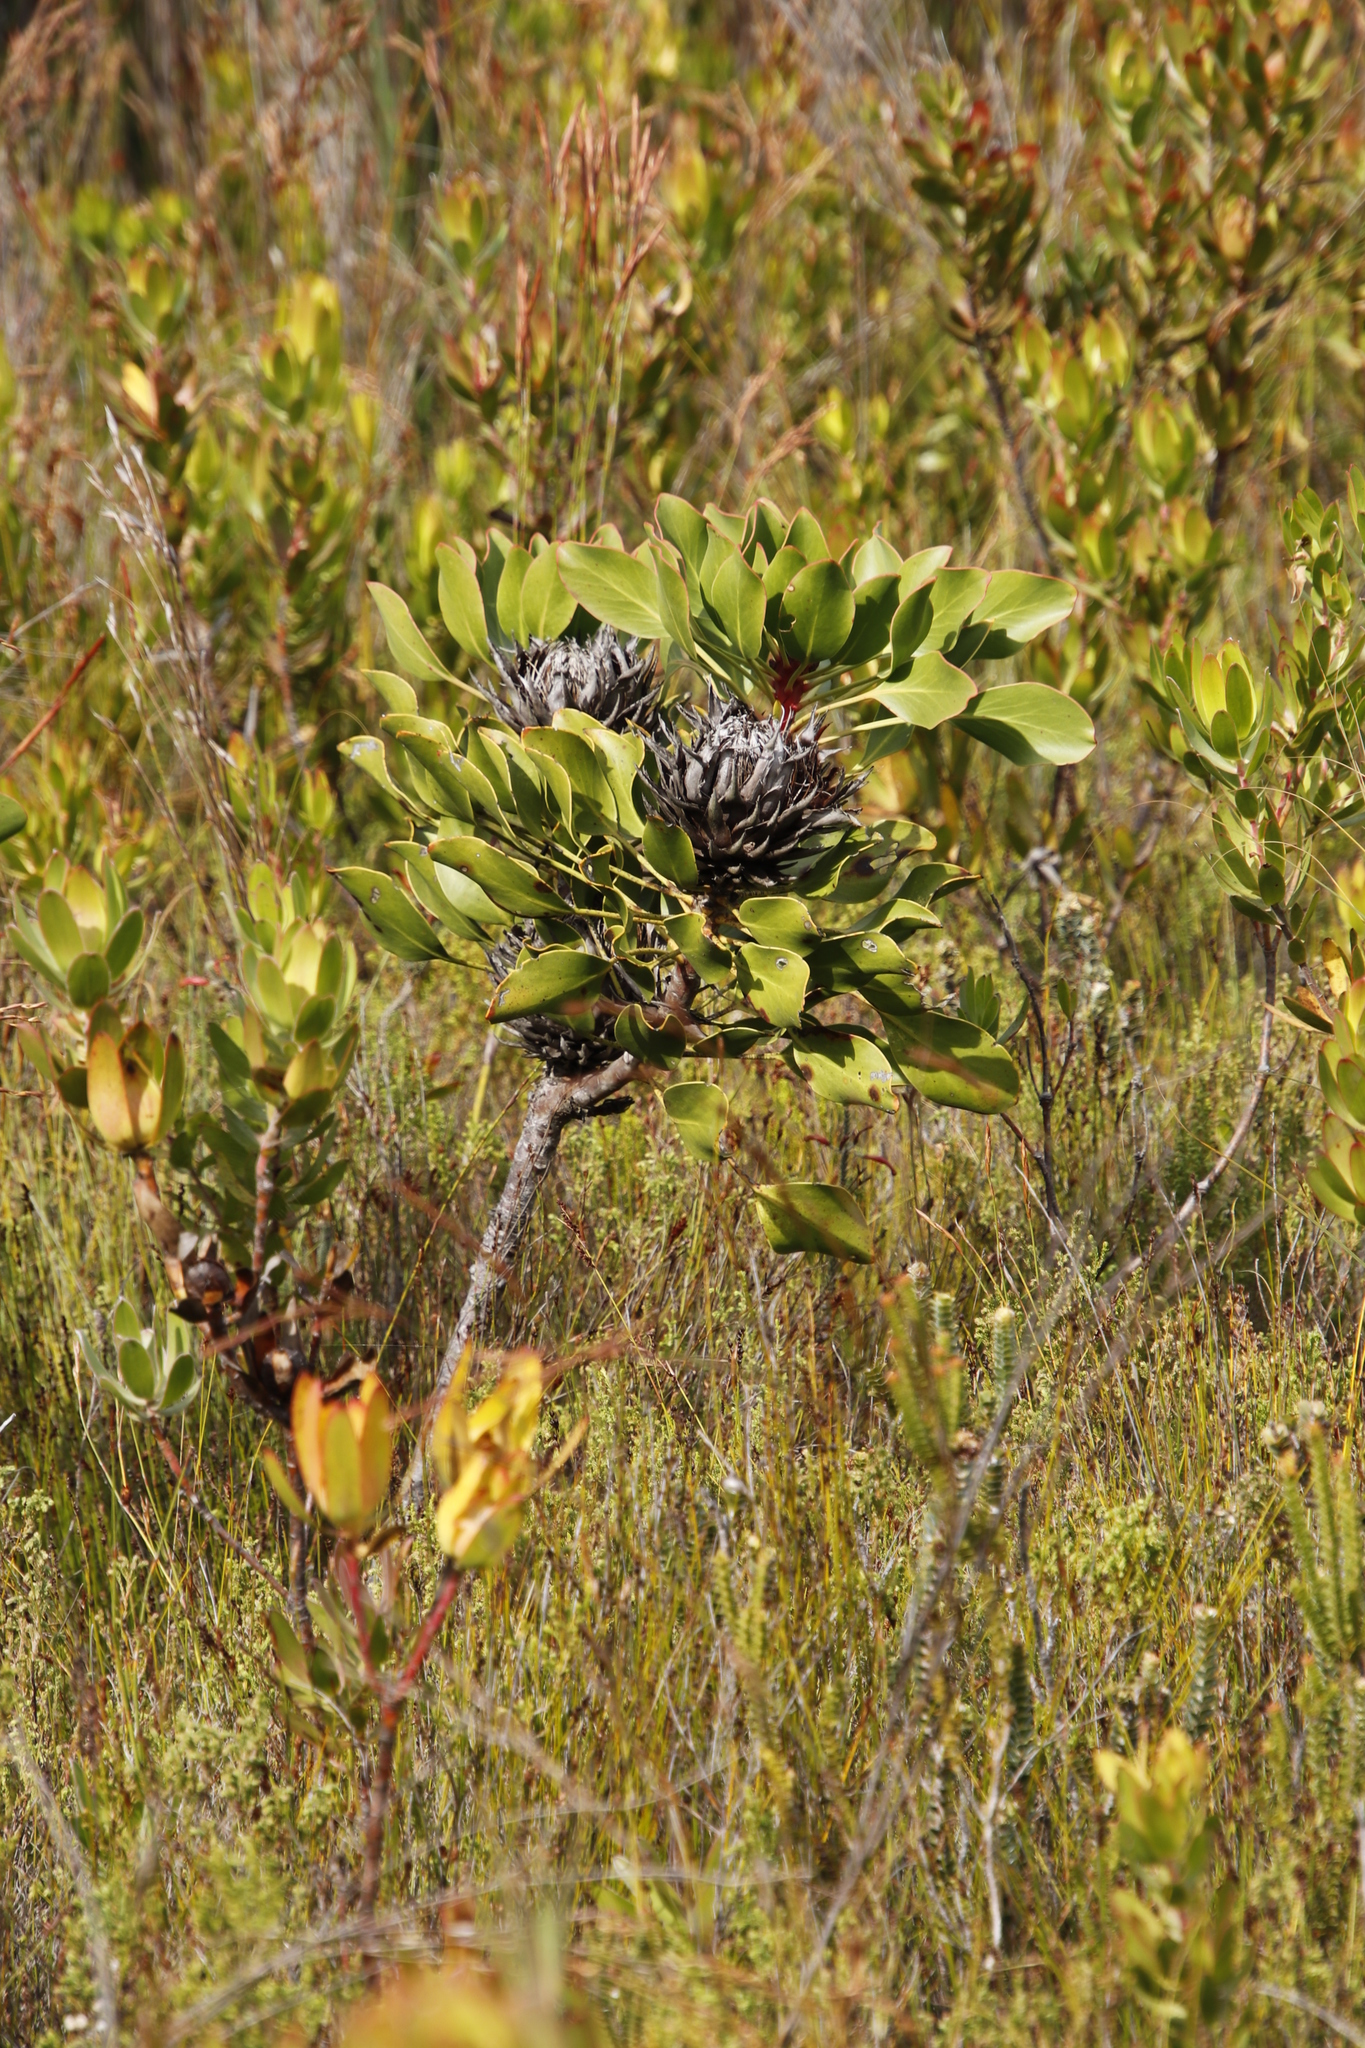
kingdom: Plantae
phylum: Tracheophyta
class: Magnoliopsida
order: Proteales
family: Proteaceae
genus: Protea
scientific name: Protea cynaroides
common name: King protea
